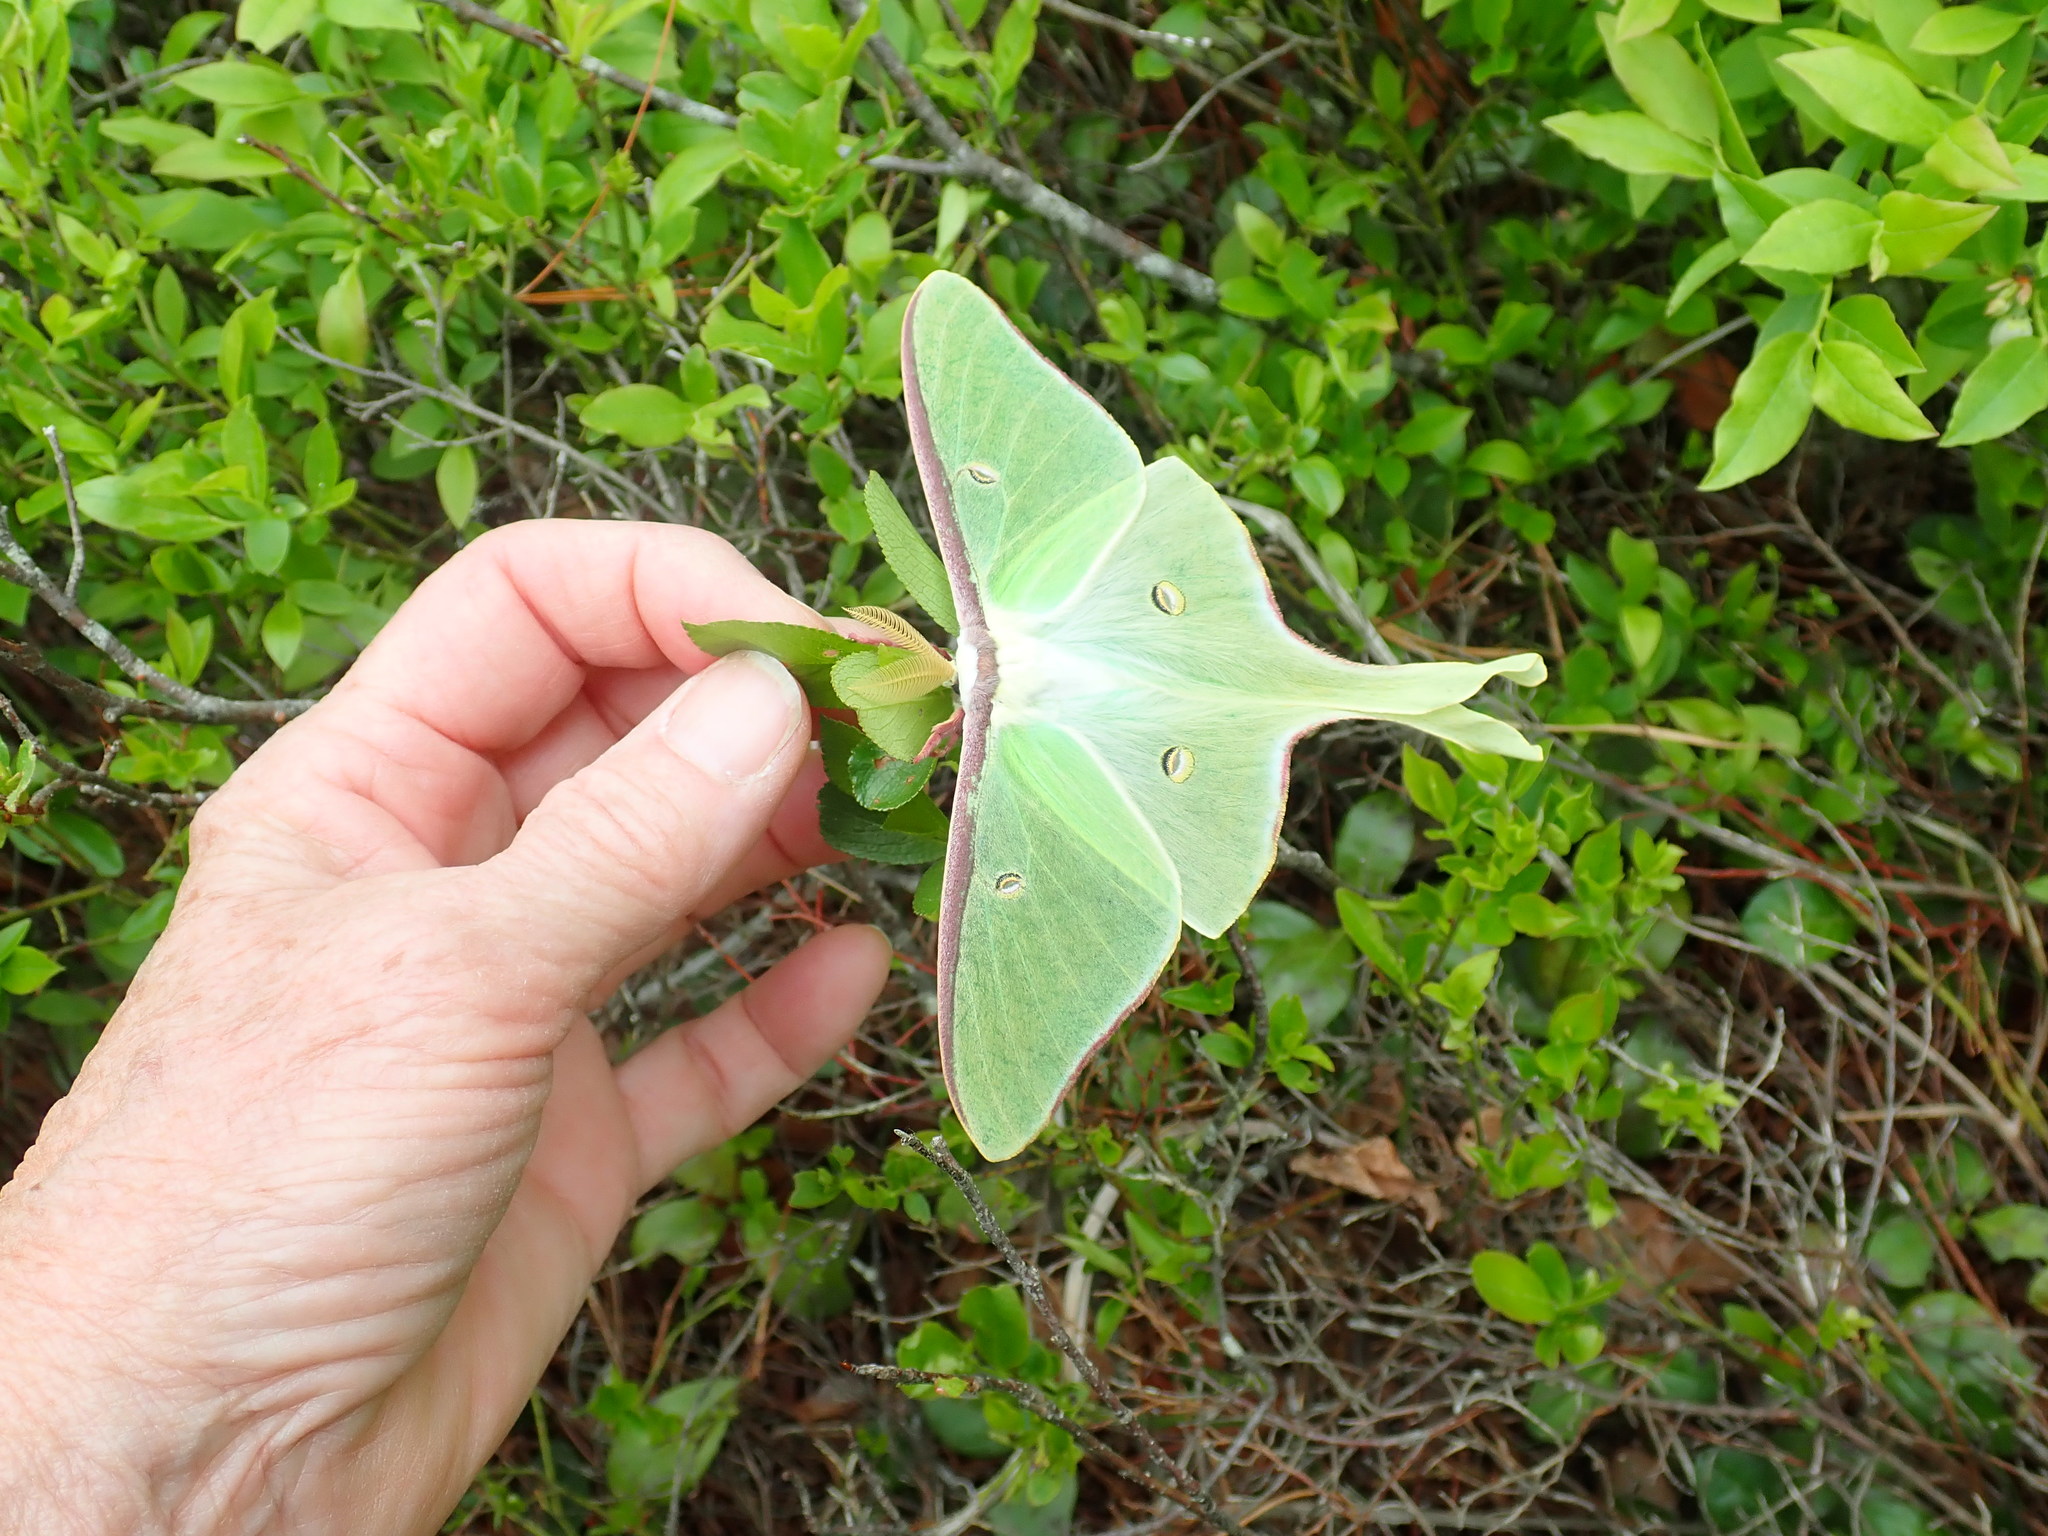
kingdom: Animalia
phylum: Arthropoda
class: Insecta
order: Lepidoptera
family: Saturniidae
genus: Actias
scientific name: Actias luna
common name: Luna moth
